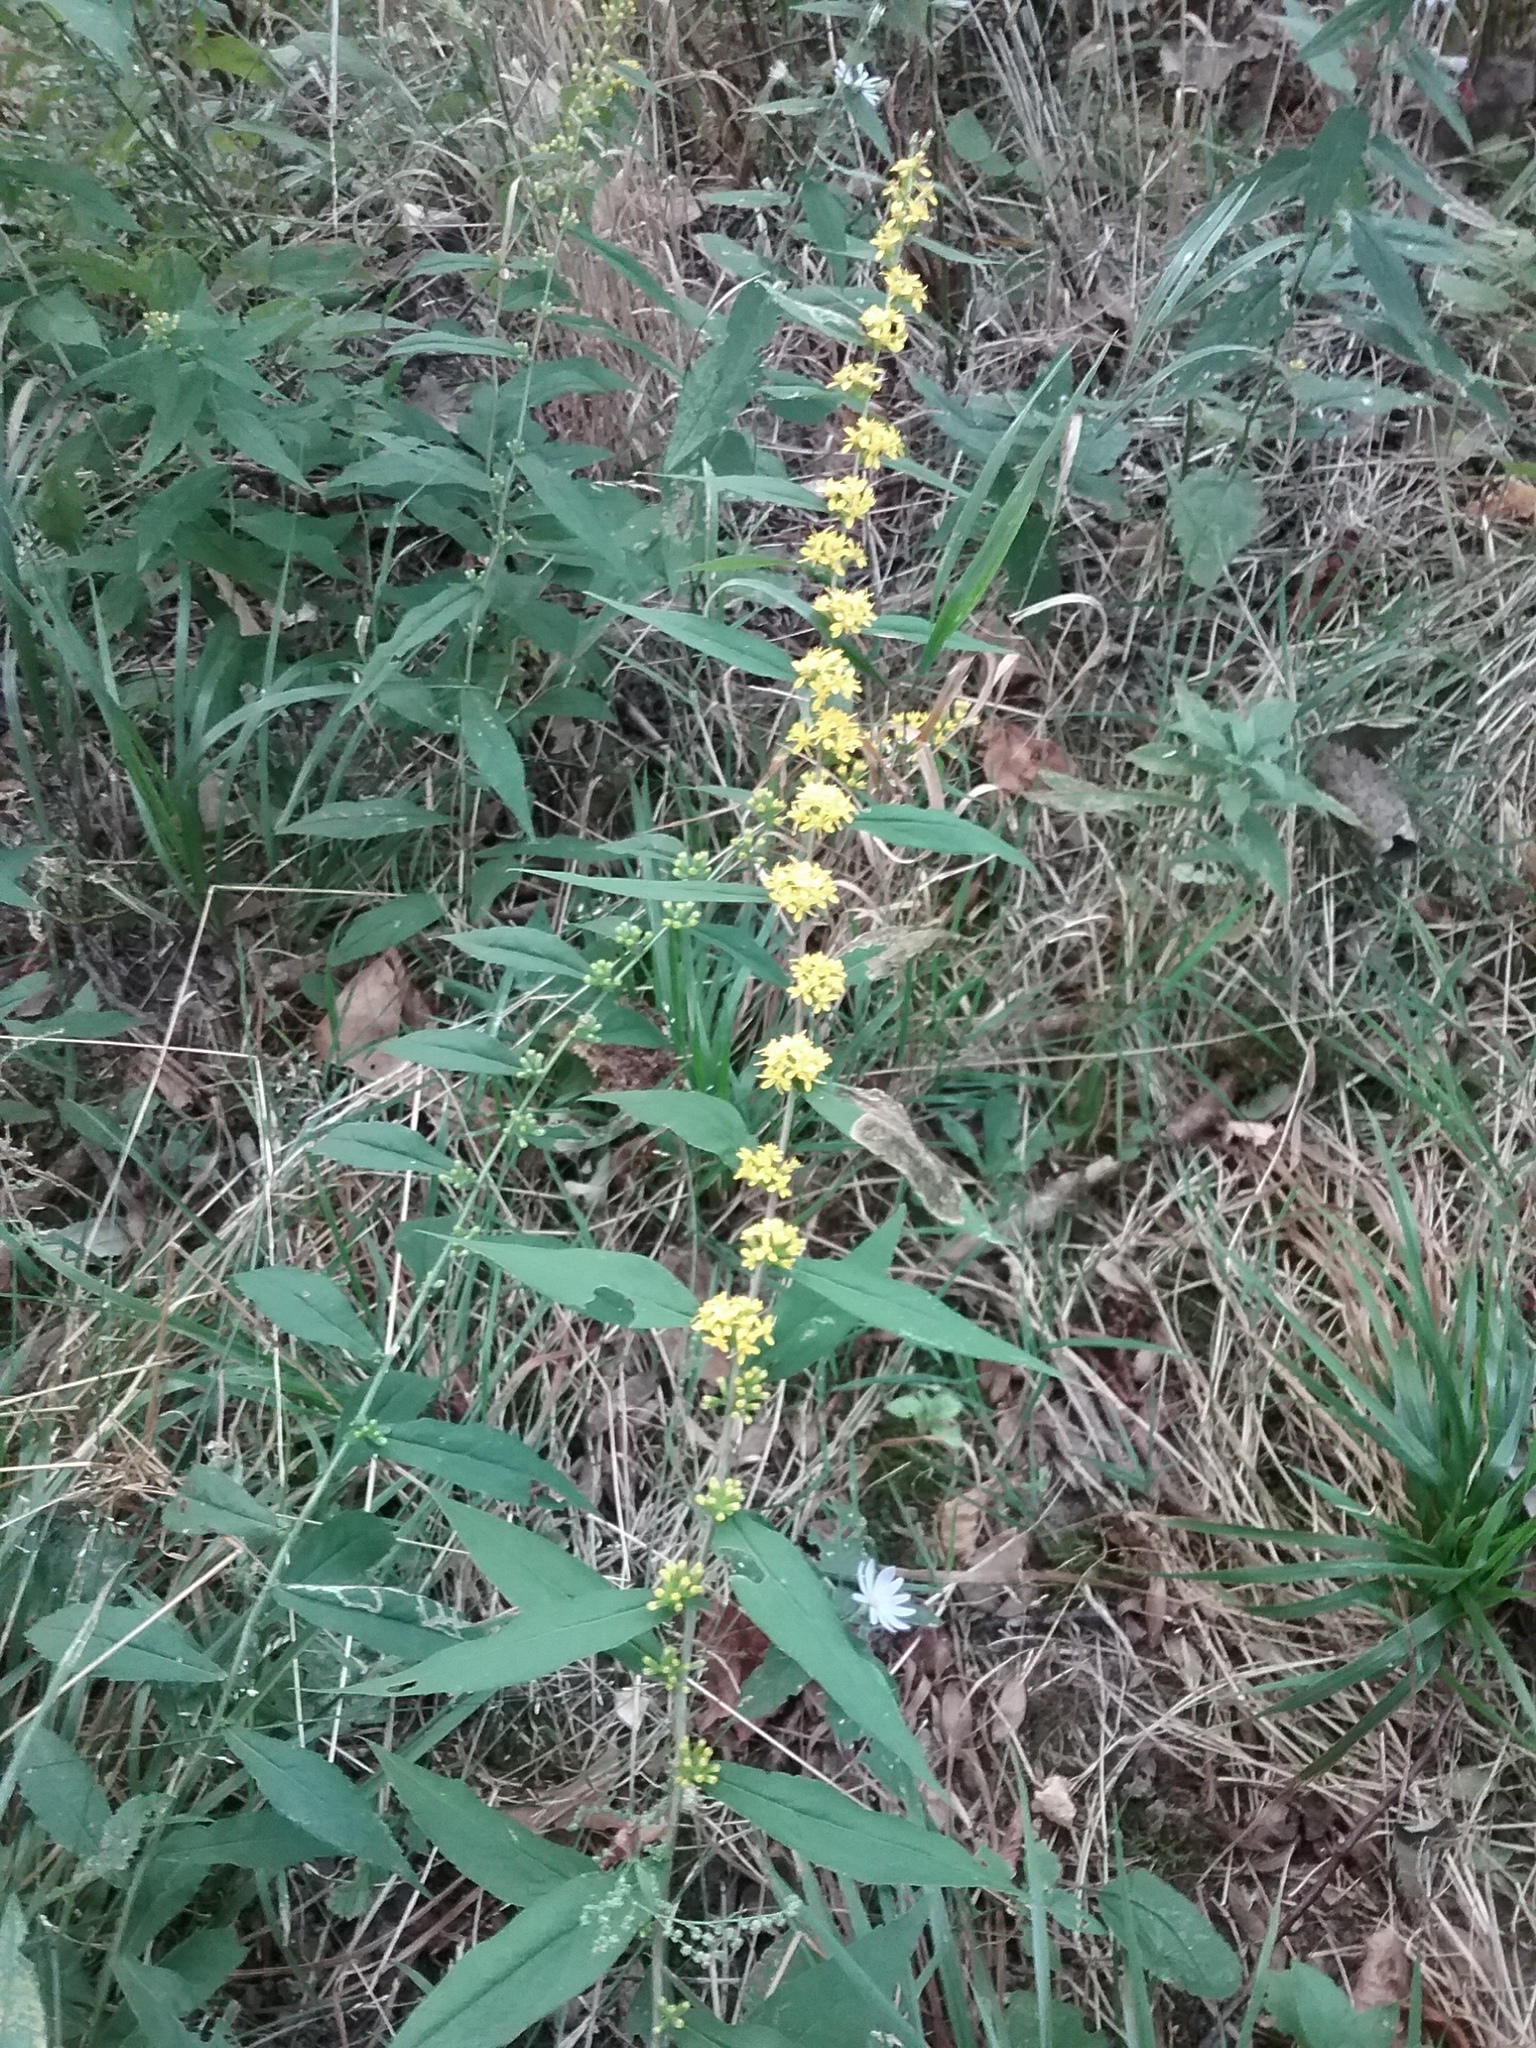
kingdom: Plantae
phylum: Tracheophyta
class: Magnoliopsida
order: Asterales
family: Asteraceae
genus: Solidago
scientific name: Solidago caesia
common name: Woodland goldenrod
